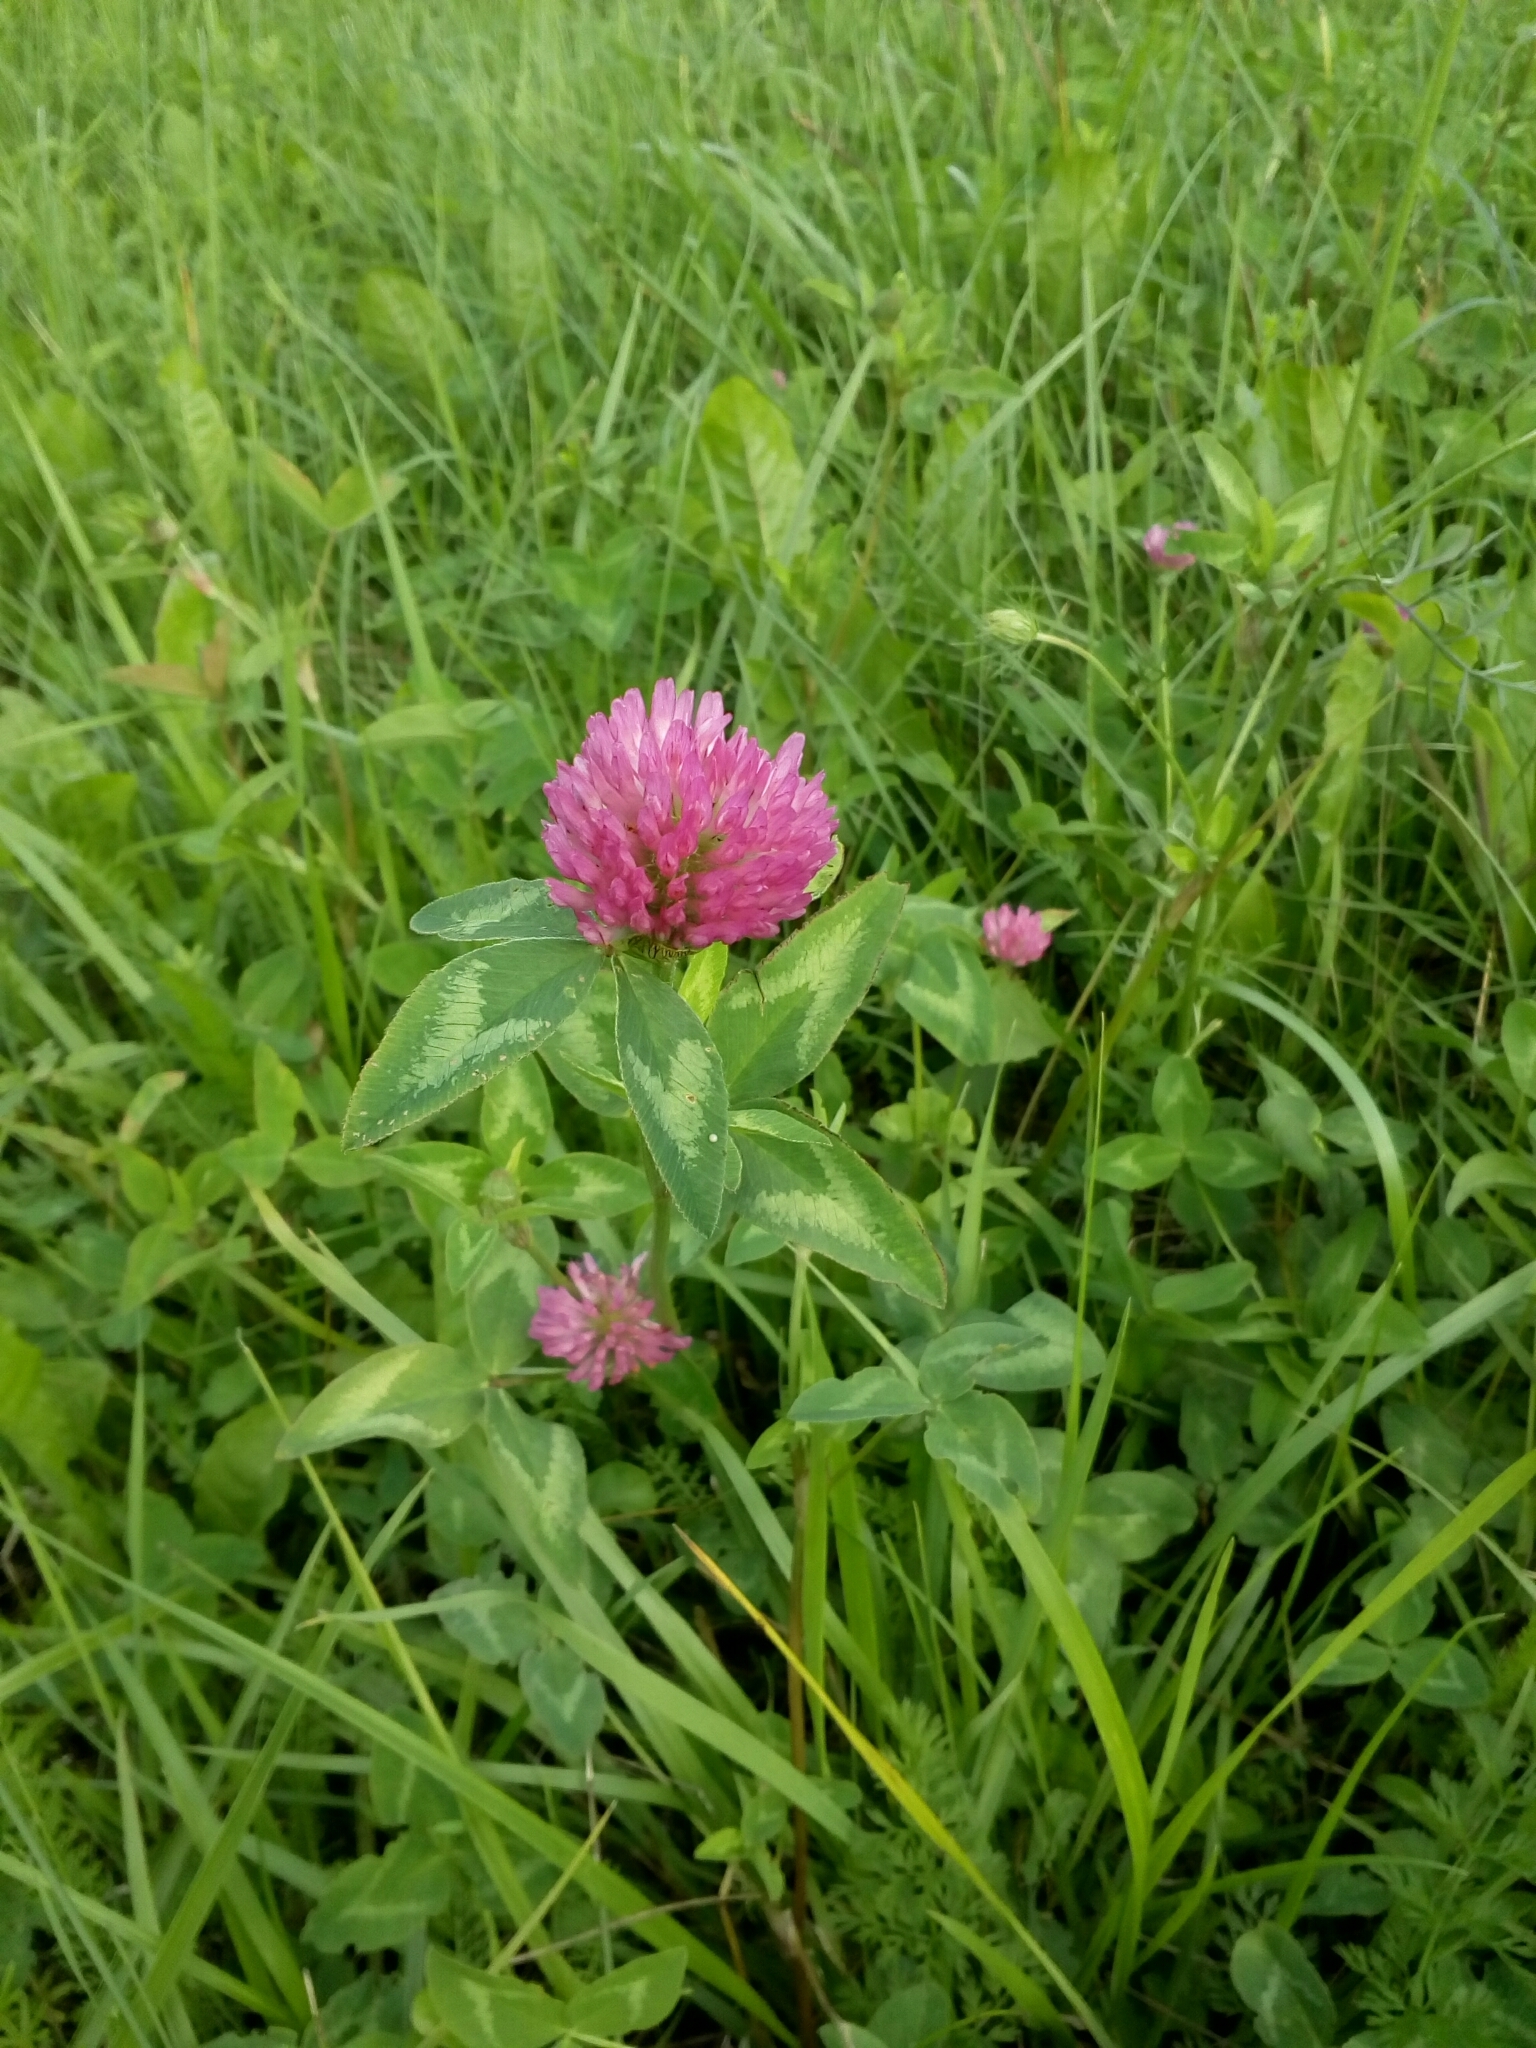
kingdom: Plantae
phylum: Tracheophyta
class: Magnoliopsida
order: Fabales
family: Fabaceae
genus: Trifolium
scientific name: Trifolium pratense
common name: Red clover
